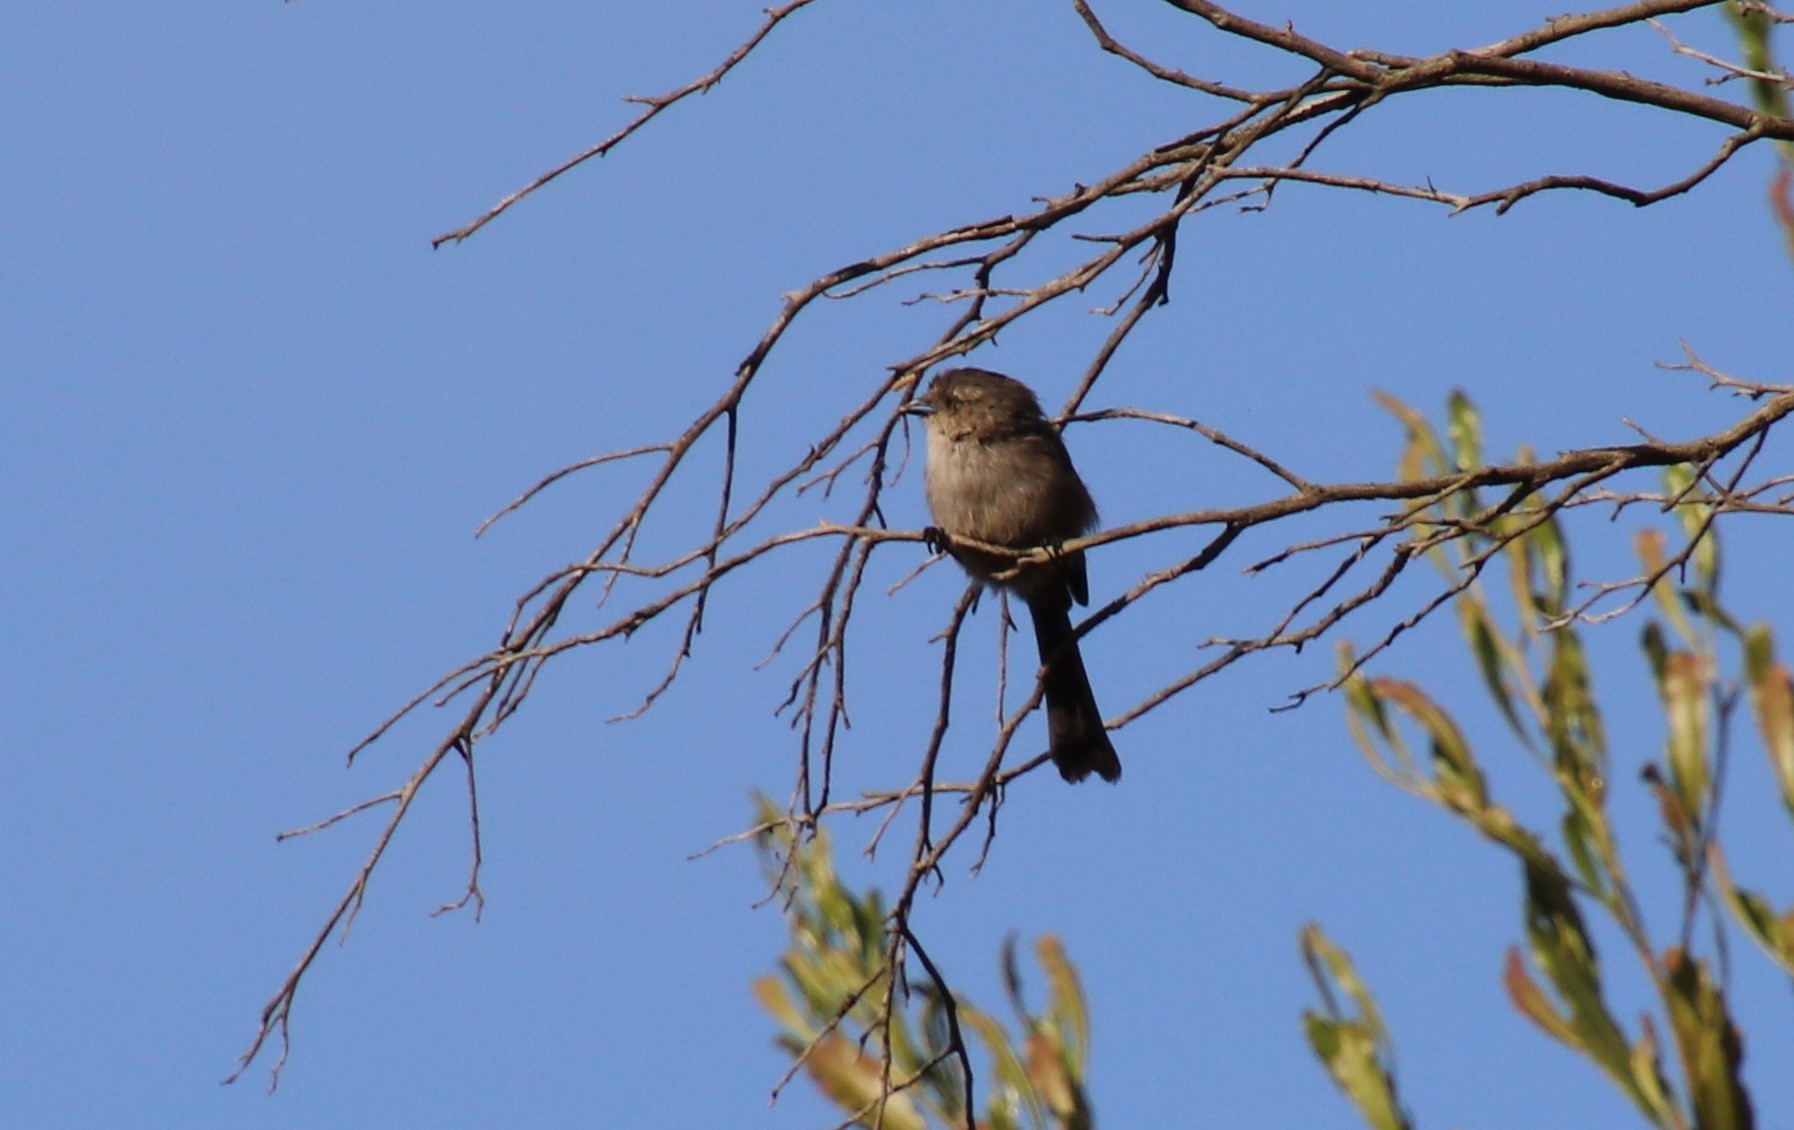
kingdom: Animalia
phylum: Chordata
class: Aves
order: Passeriformes
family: Aegithalidae
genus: Psaltriparus
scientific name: Psaltriparus minimus
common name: American bushtit
